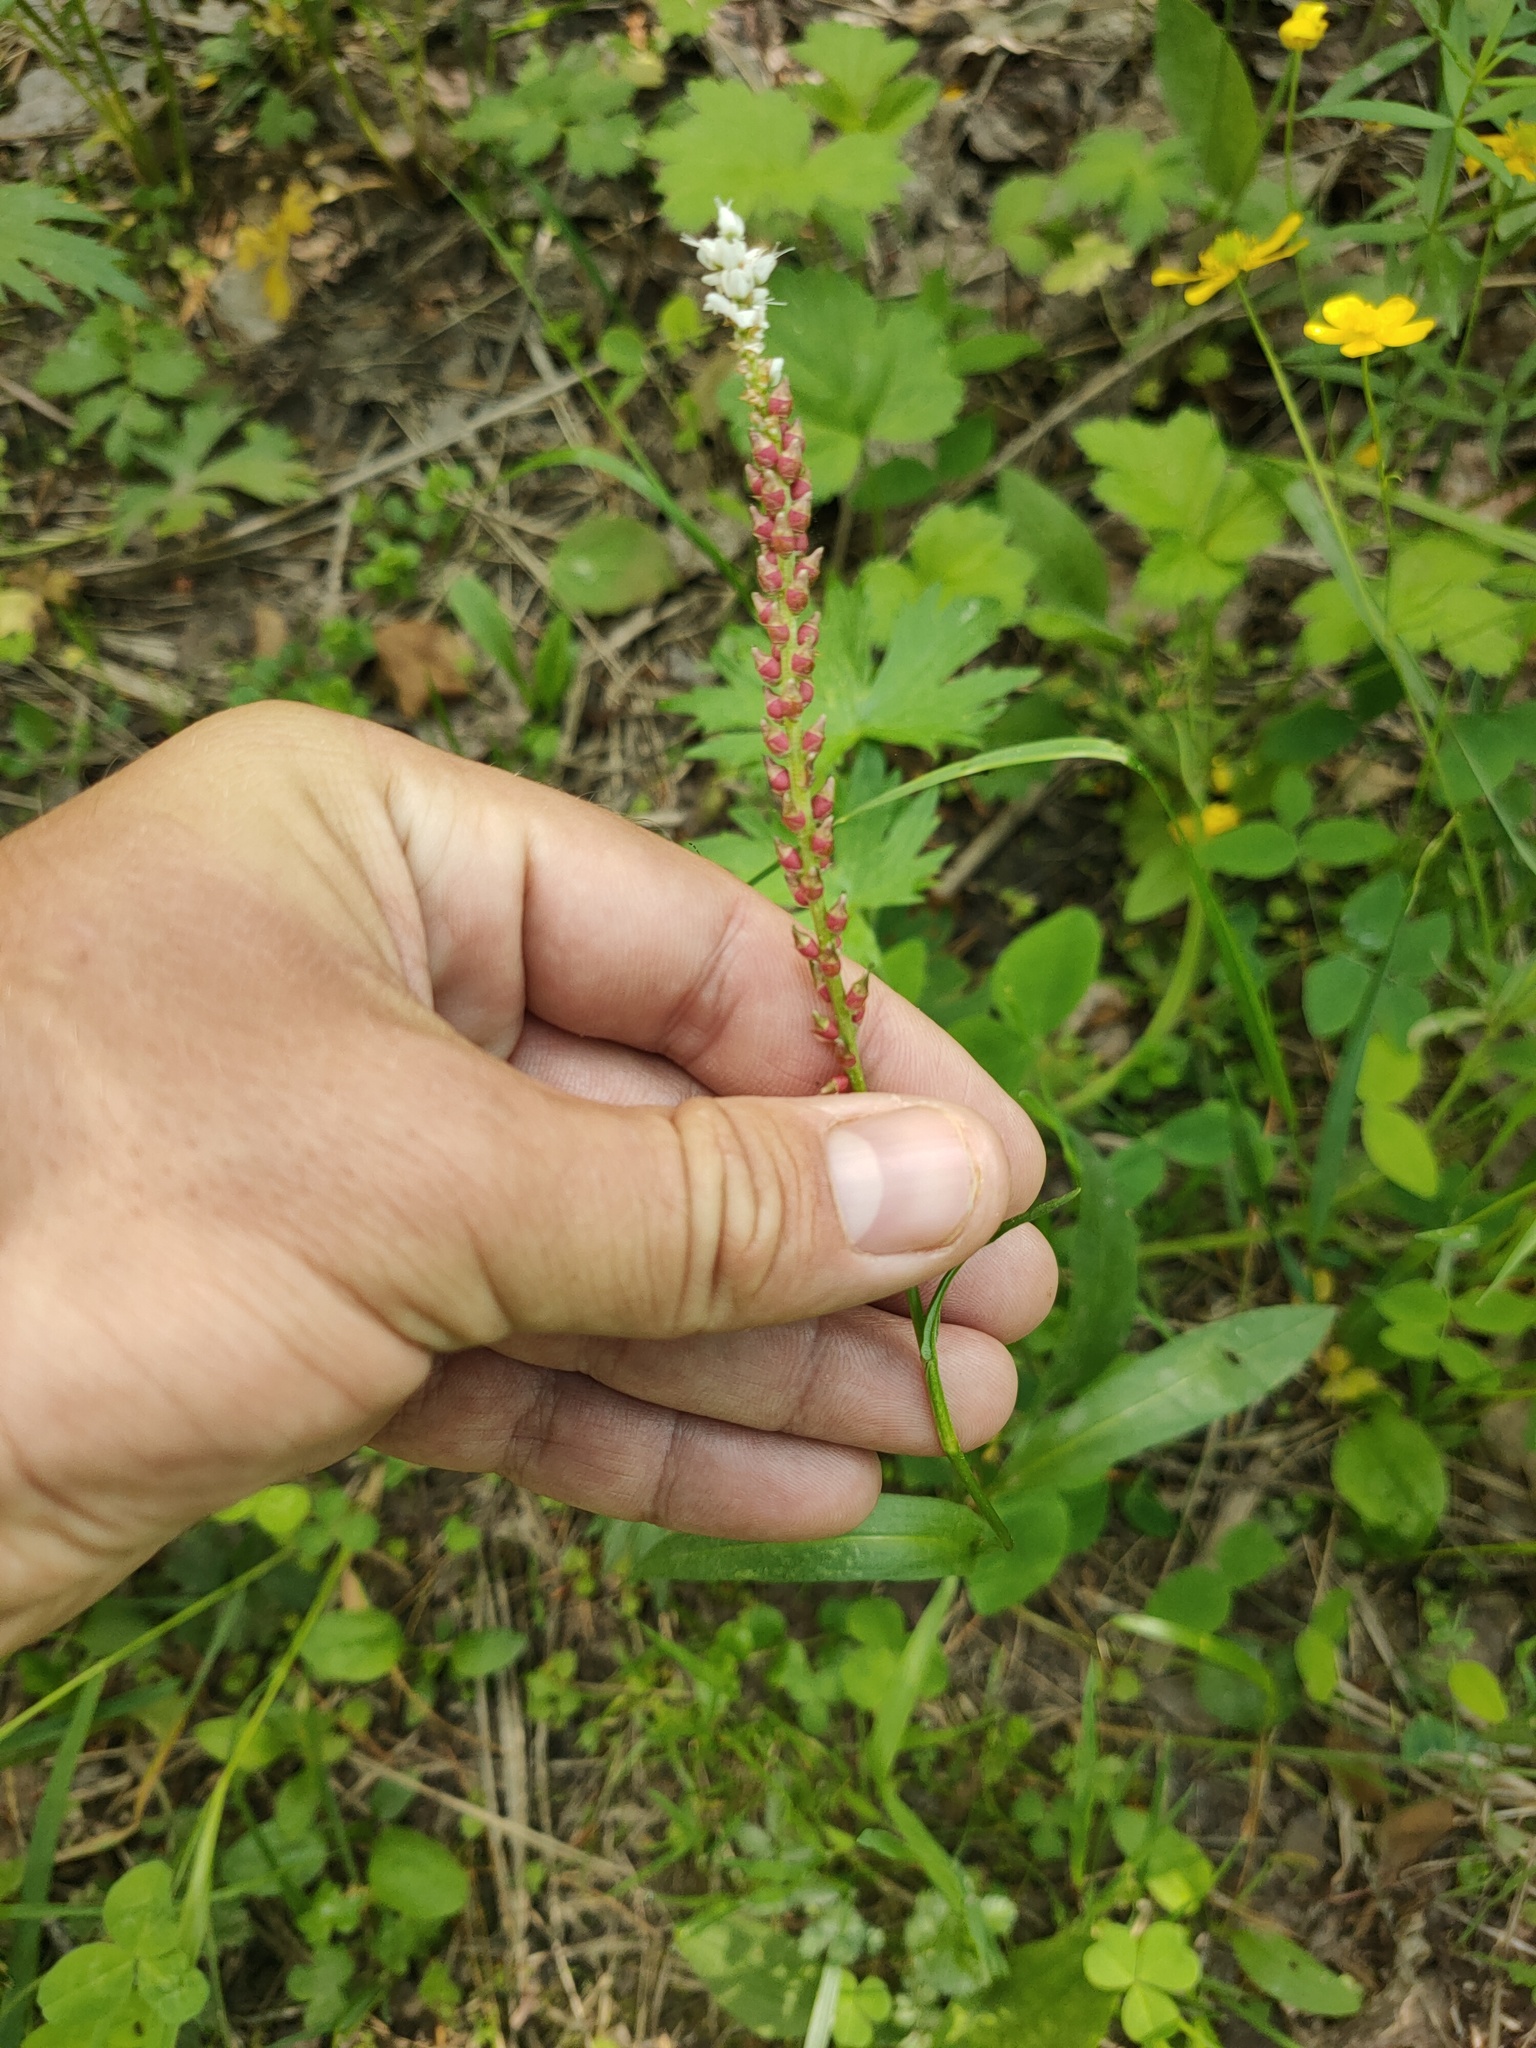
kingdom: Plantae
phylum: Tracheophyta
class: Magnoliopsida
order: Caryophyllales
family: Polygonaceae
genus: Bistorta
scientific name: Bistorta vivipara
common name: Alpine bistort
